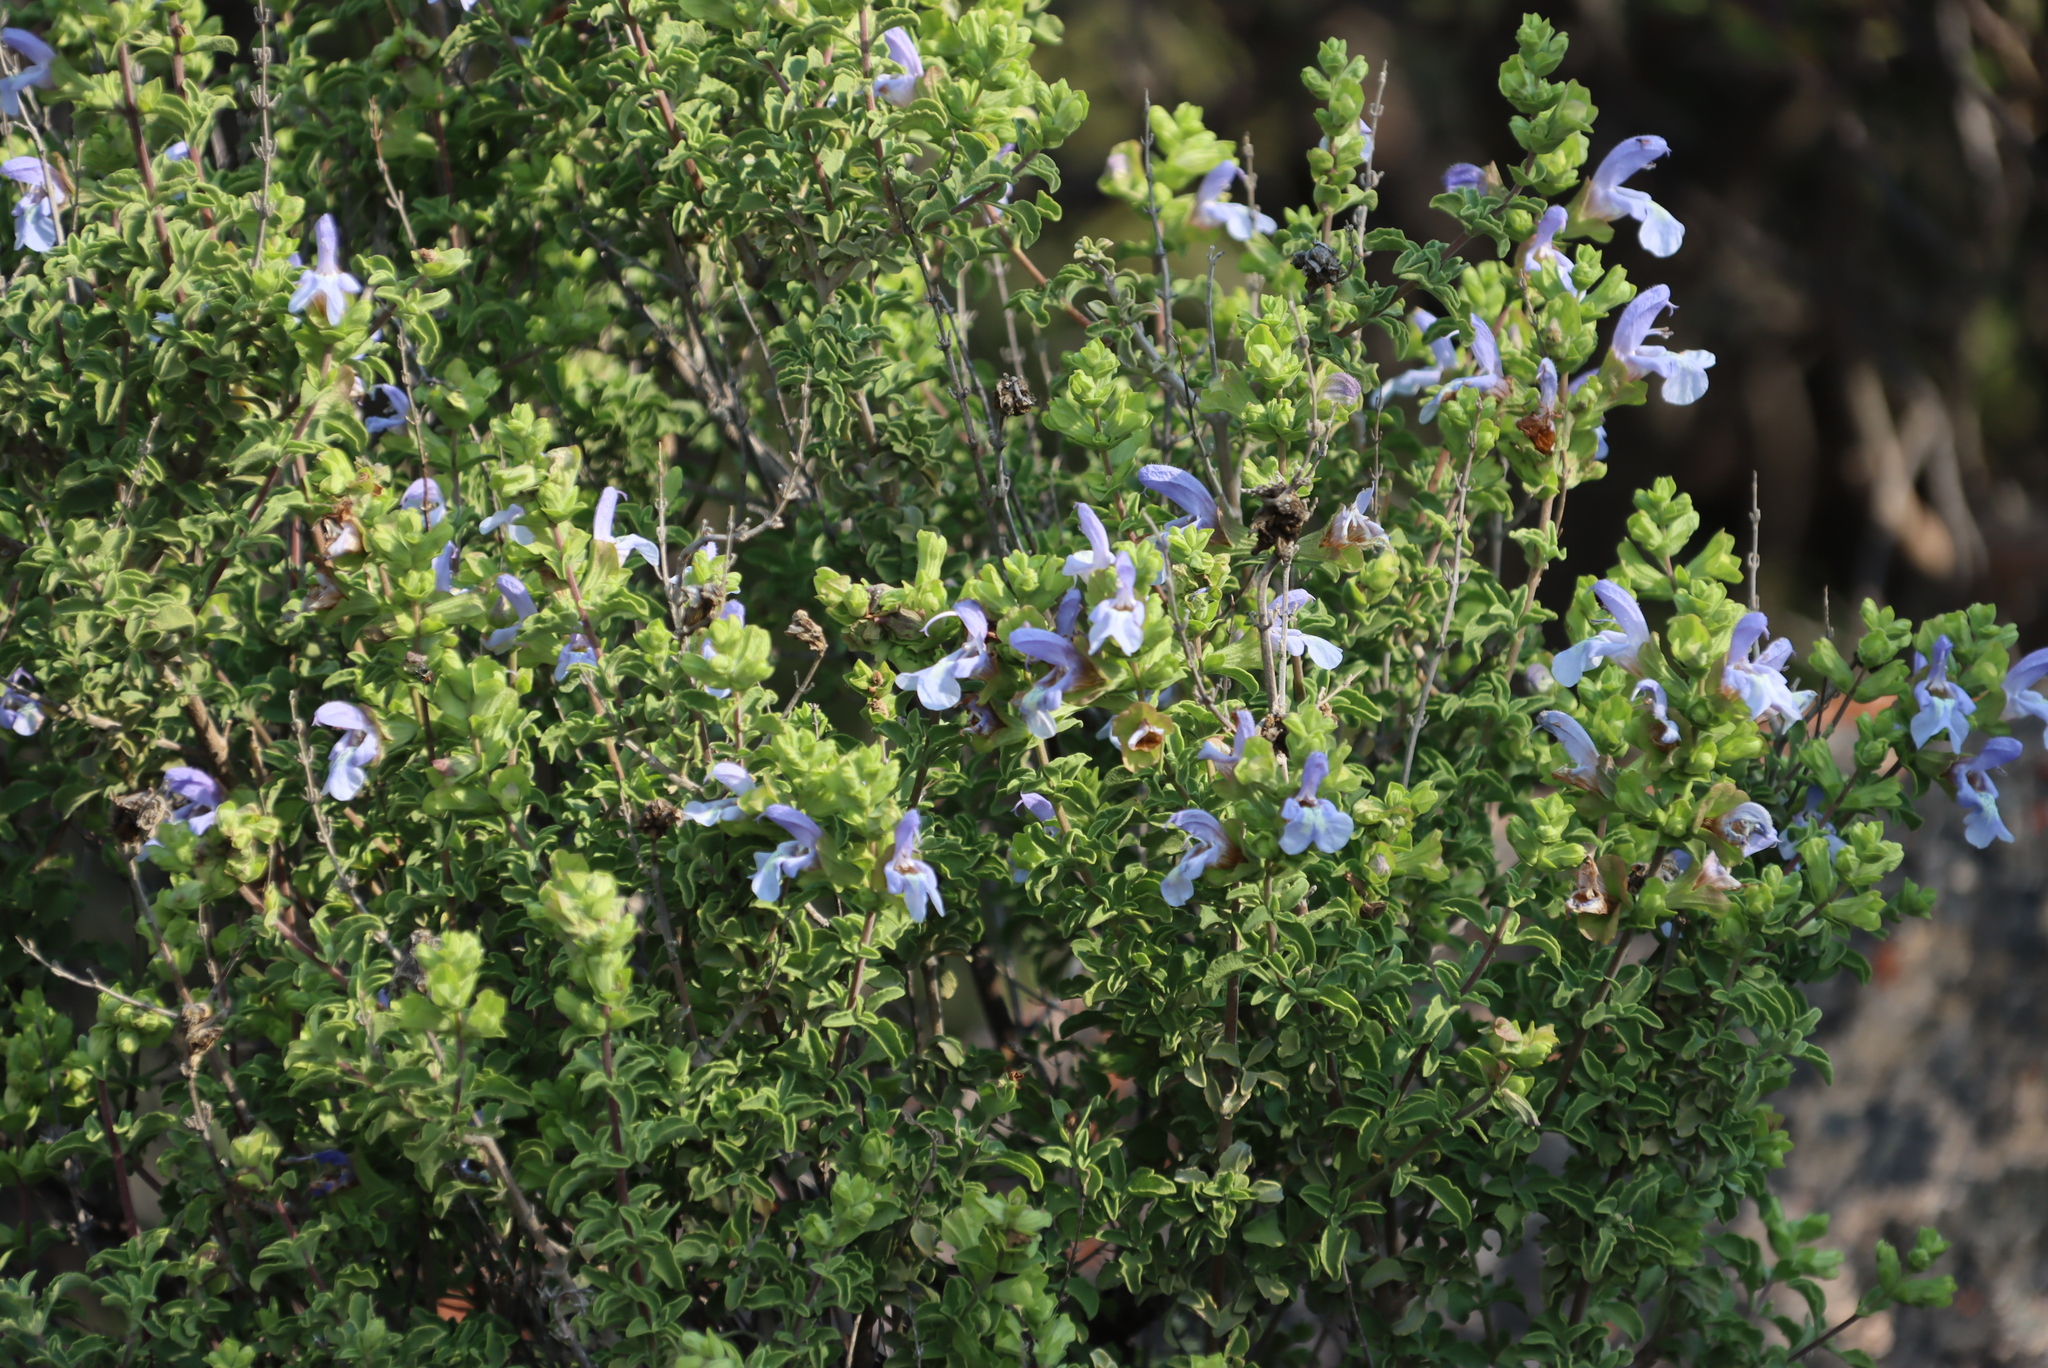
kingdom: Plantae
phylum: Tracheophyta
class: Magnoliopsida
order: Lamiales
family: Lamiaceae
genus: Salvia
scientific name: Salvia dentata
